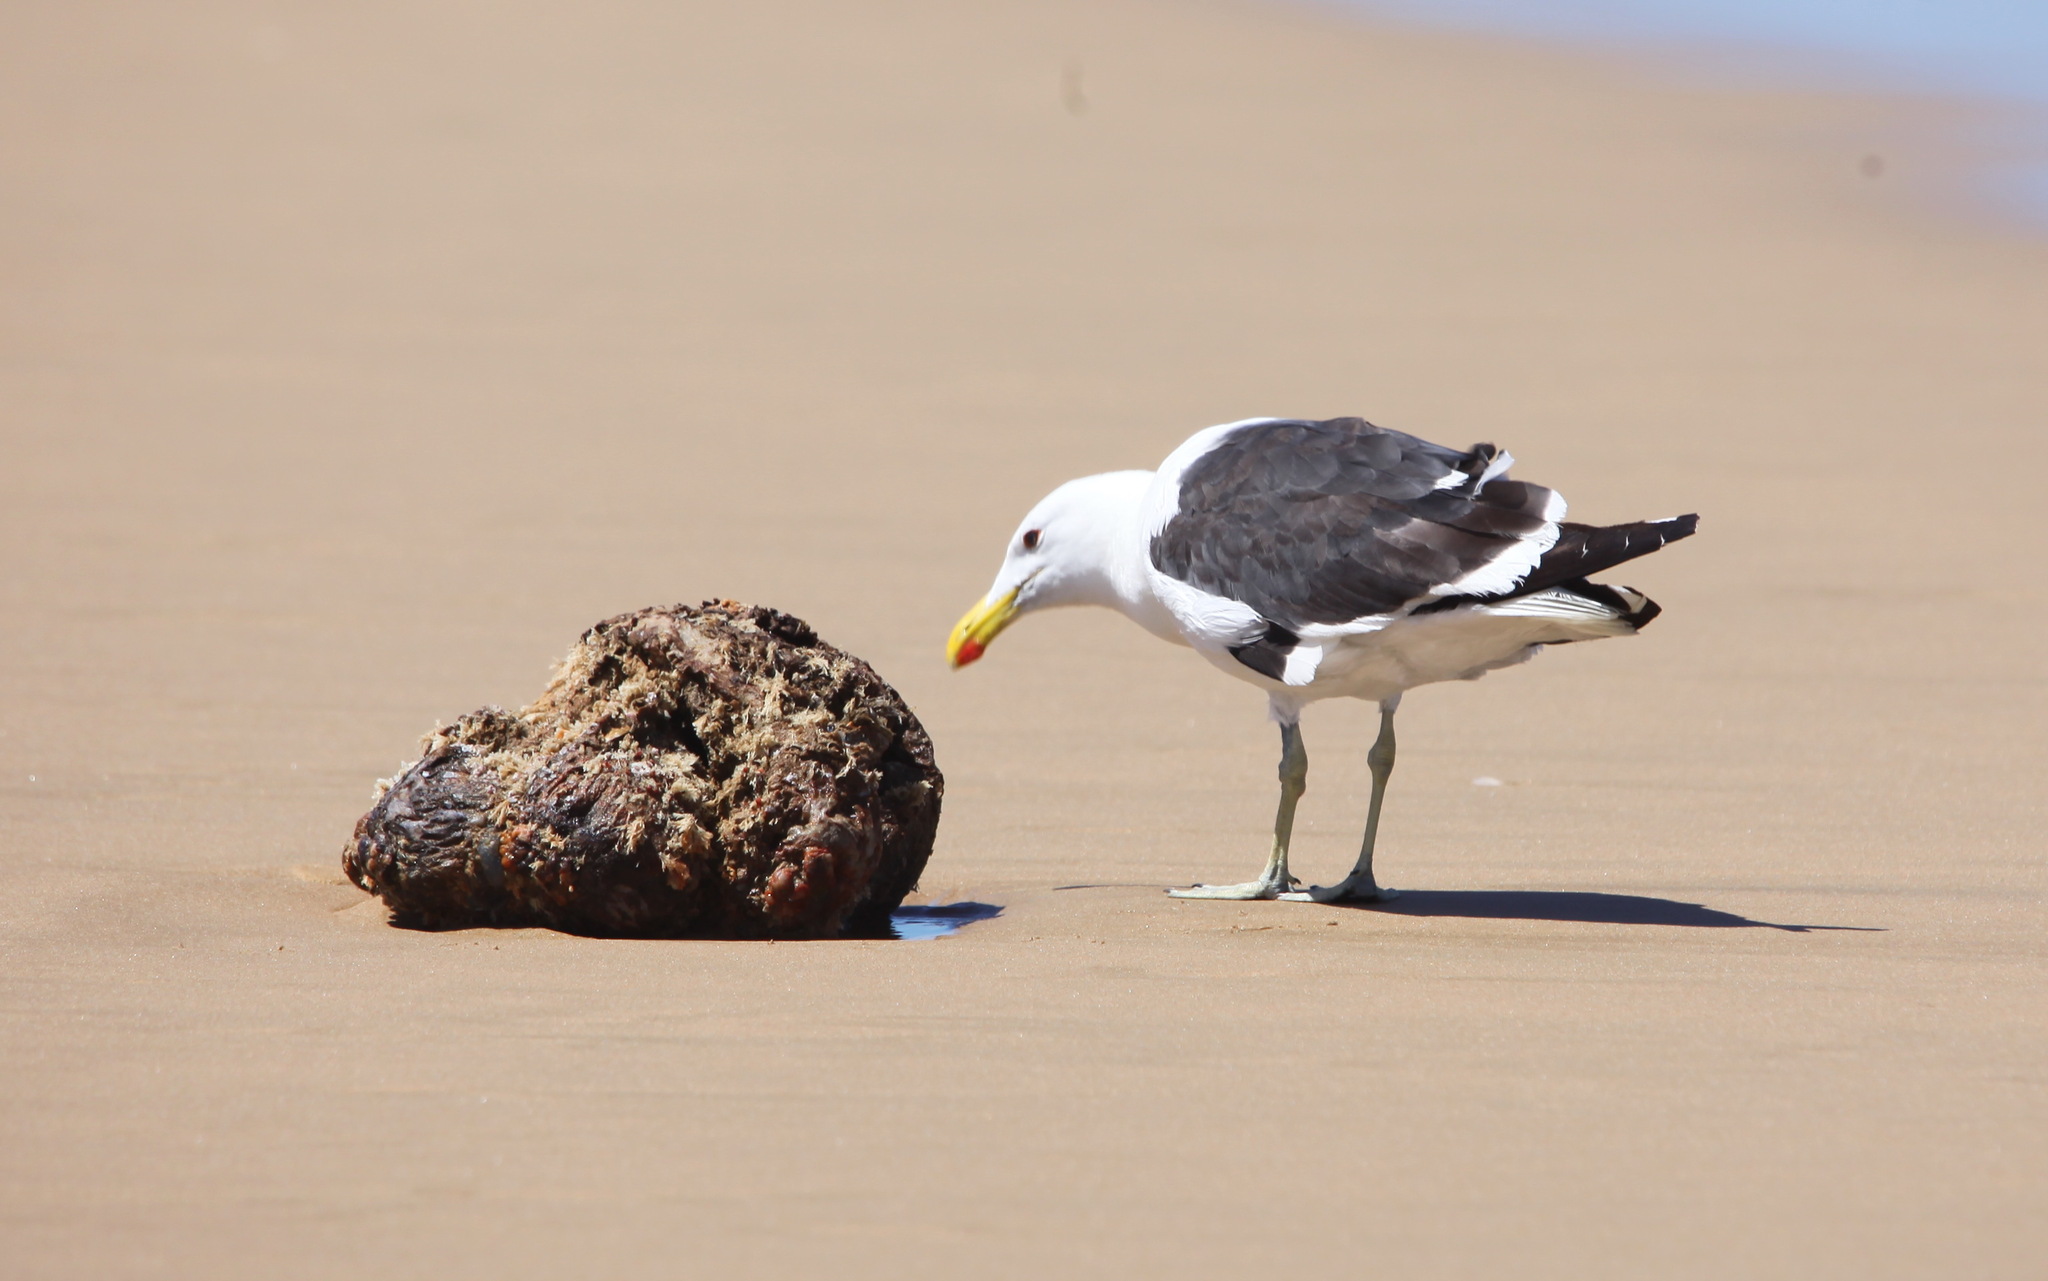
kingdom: Animalia
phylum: Chordata
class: Aves
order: Charadriiformes
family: Laridae
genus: Larus
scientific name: Larus dominicanus
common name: Kelp gull
